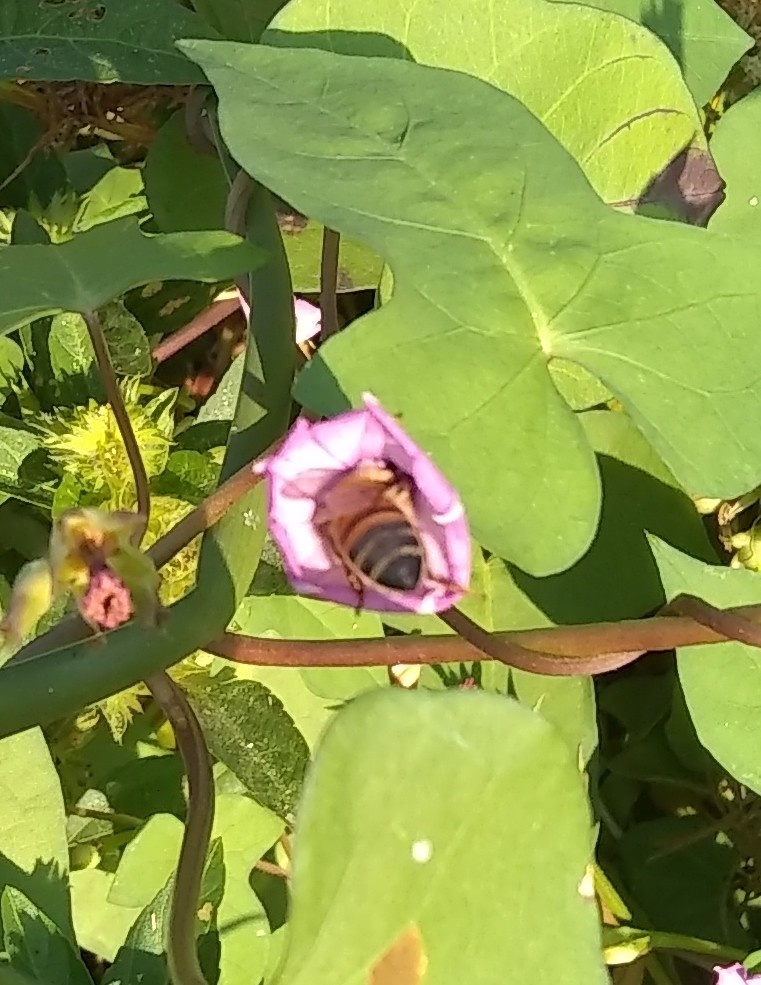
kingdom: Animalia
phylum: Arthropoda
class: Insecta
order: Hymenoptera
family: Apidae
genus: Apis
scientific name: Apis mellifera
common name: Honey bee
